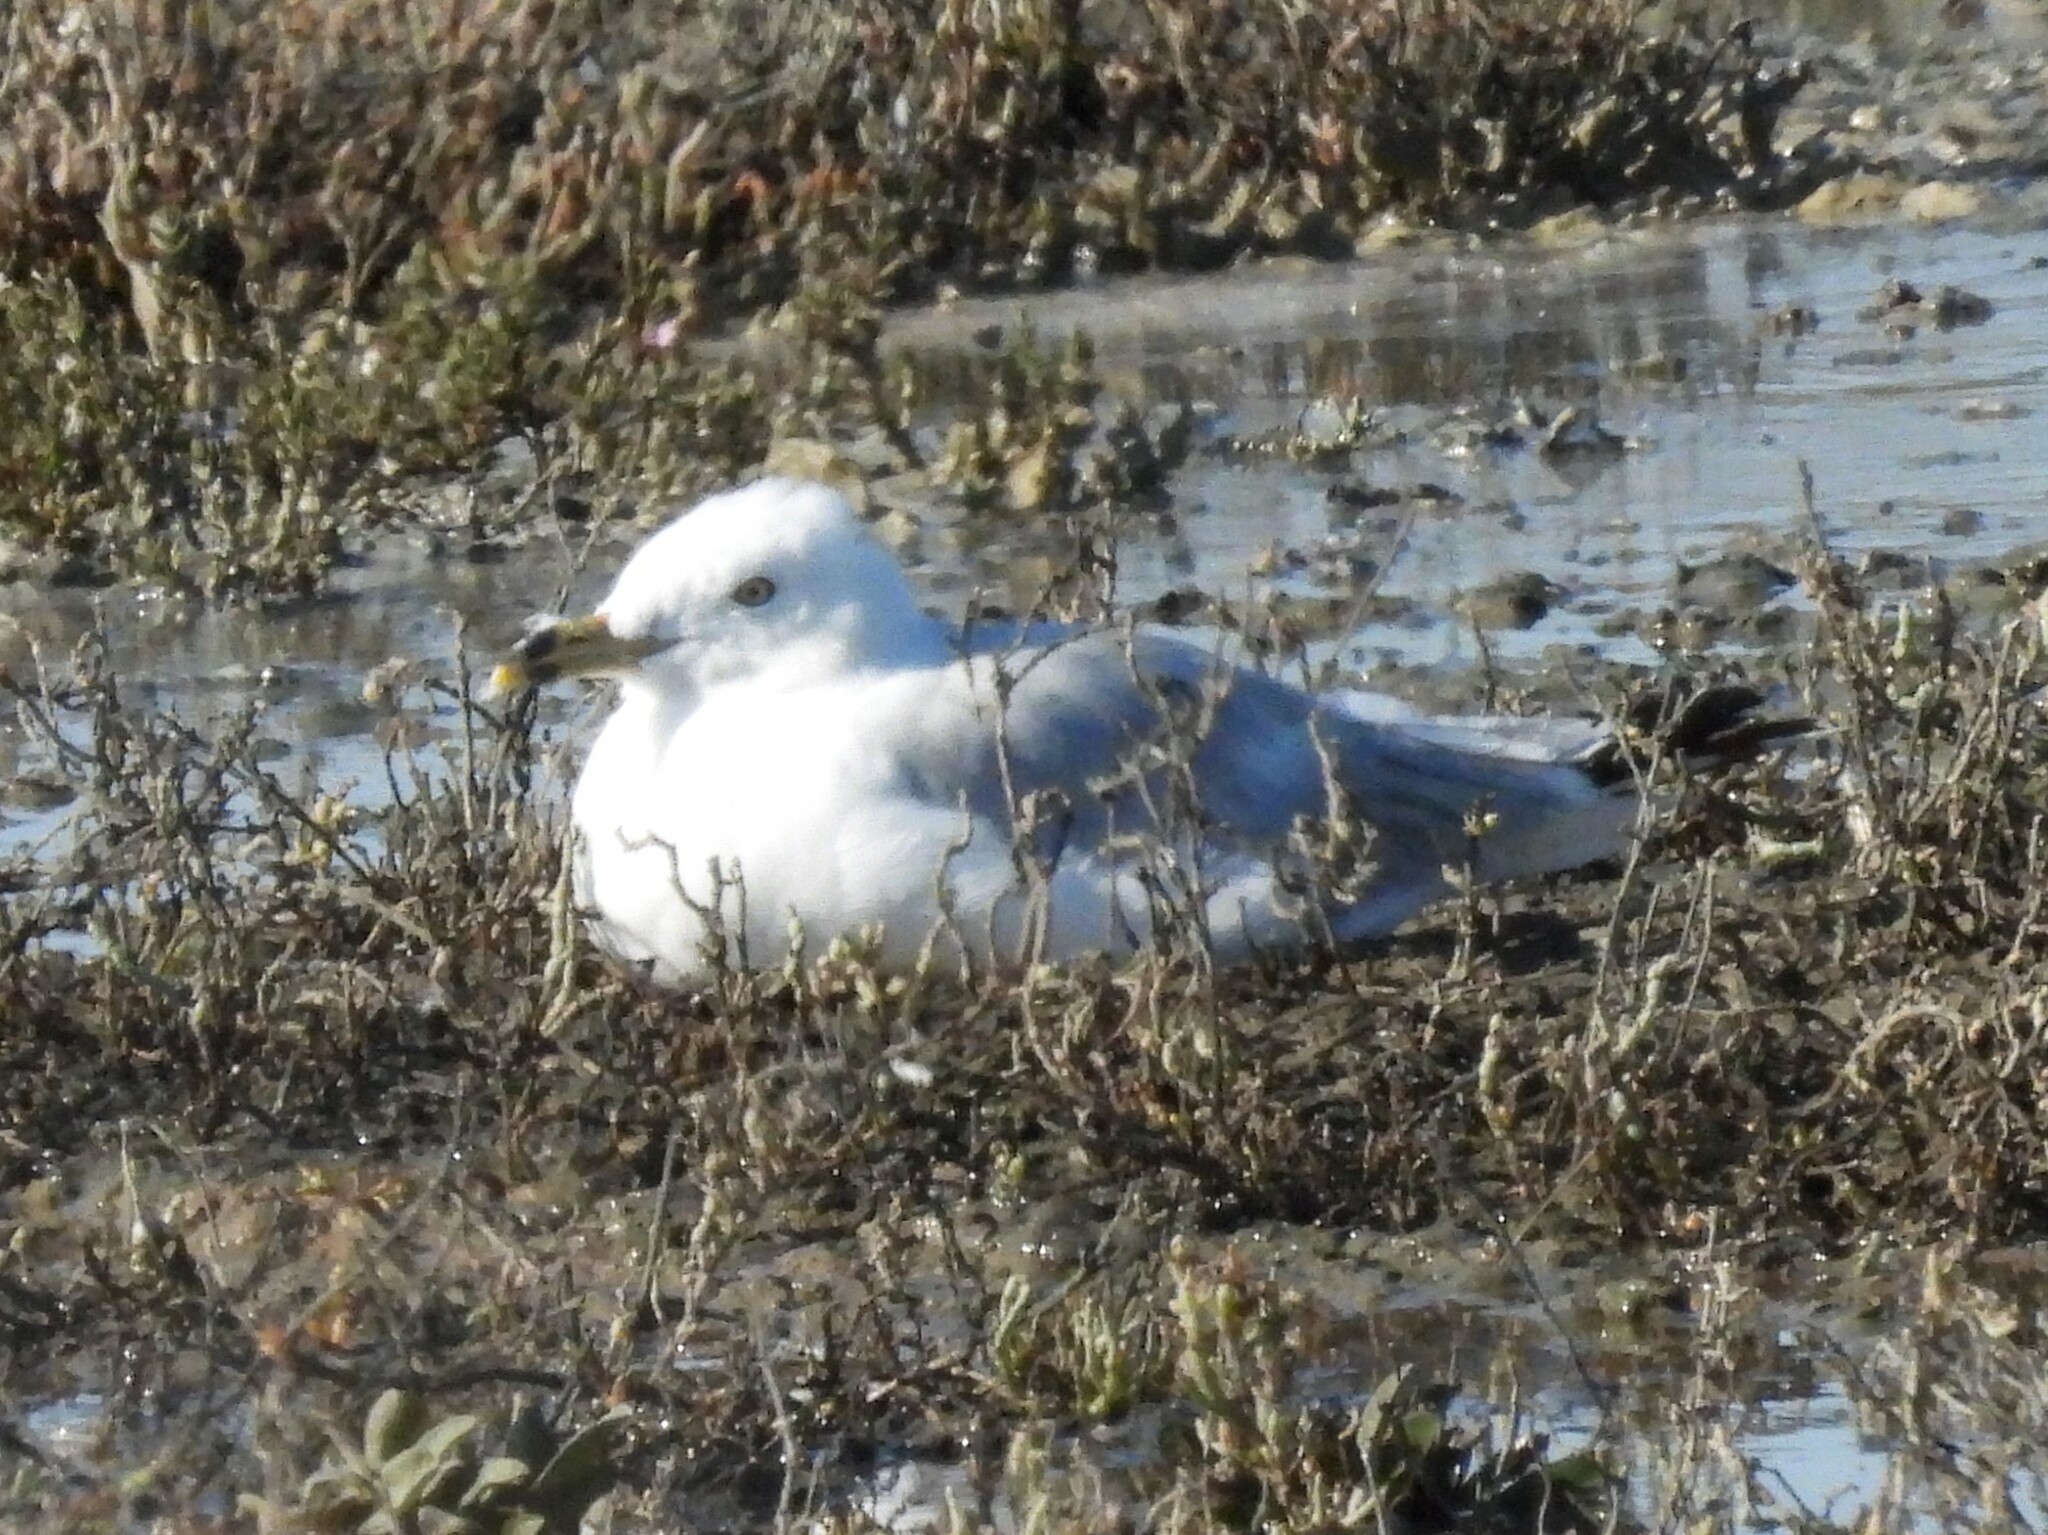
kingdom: Animalia
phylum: Chordata
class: Aves
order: Charadriiformes
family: Laridae
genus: Larus
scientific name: Larus delawarensis
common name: Ring-billed gull
